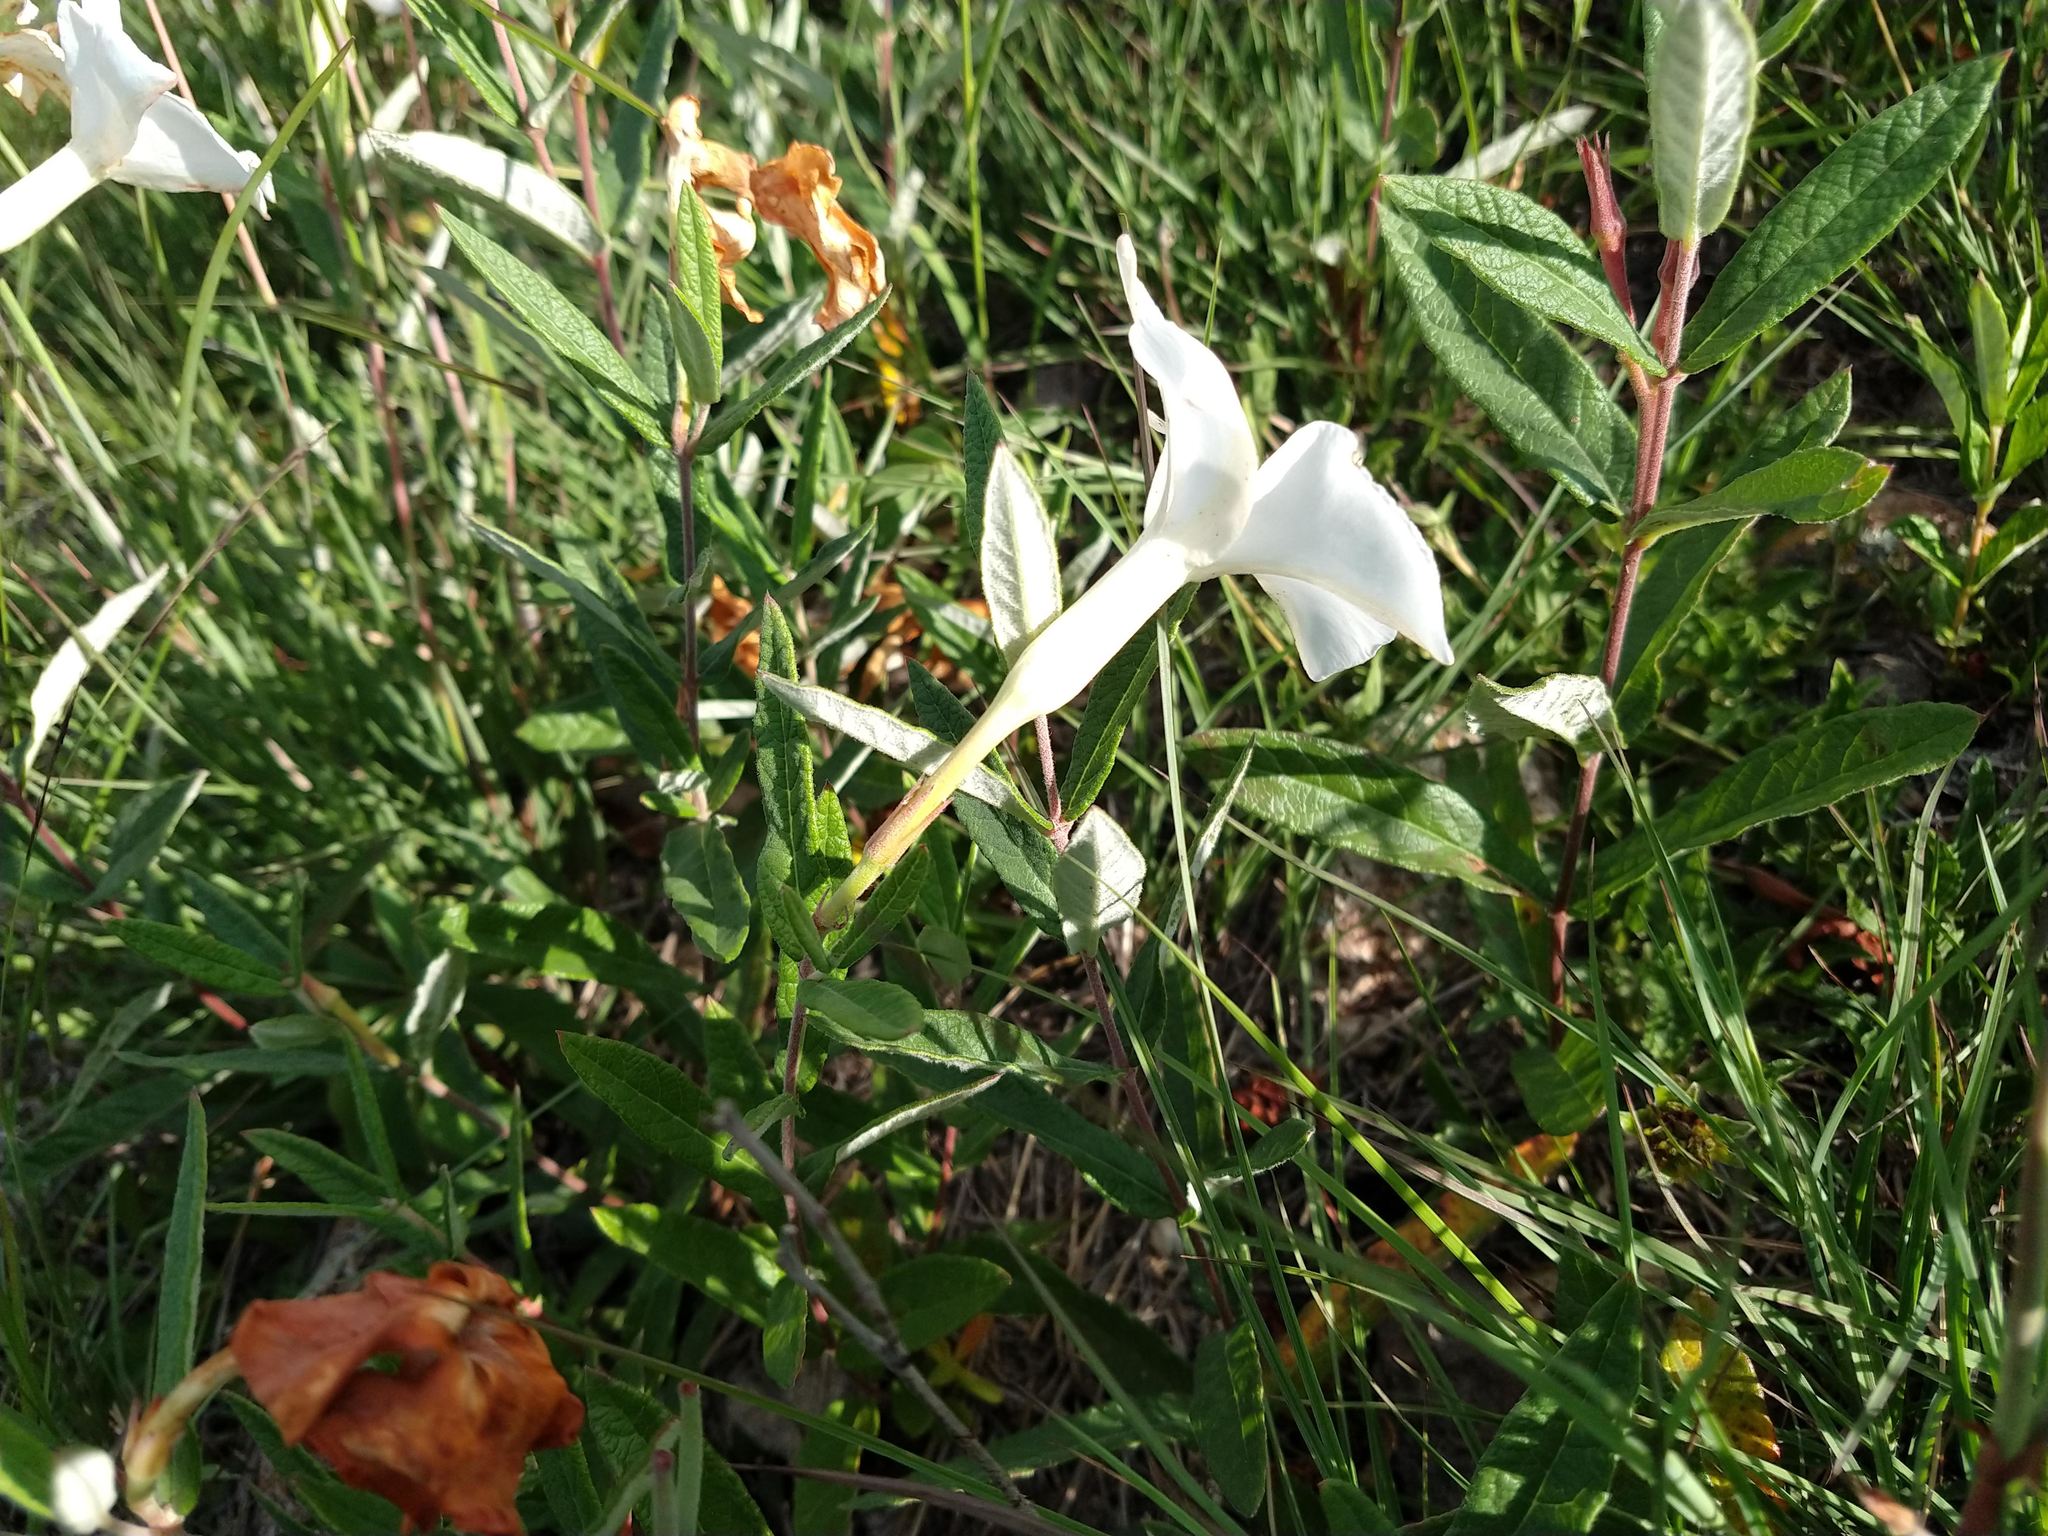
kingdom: Plantae
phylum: Tracheophyta
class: Magnoliopsida
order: Gentianales
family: Apocynaceae
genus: Mandevilla
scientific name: Mandevilla hypoleuca
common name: Davis mountain rocktrumpet
